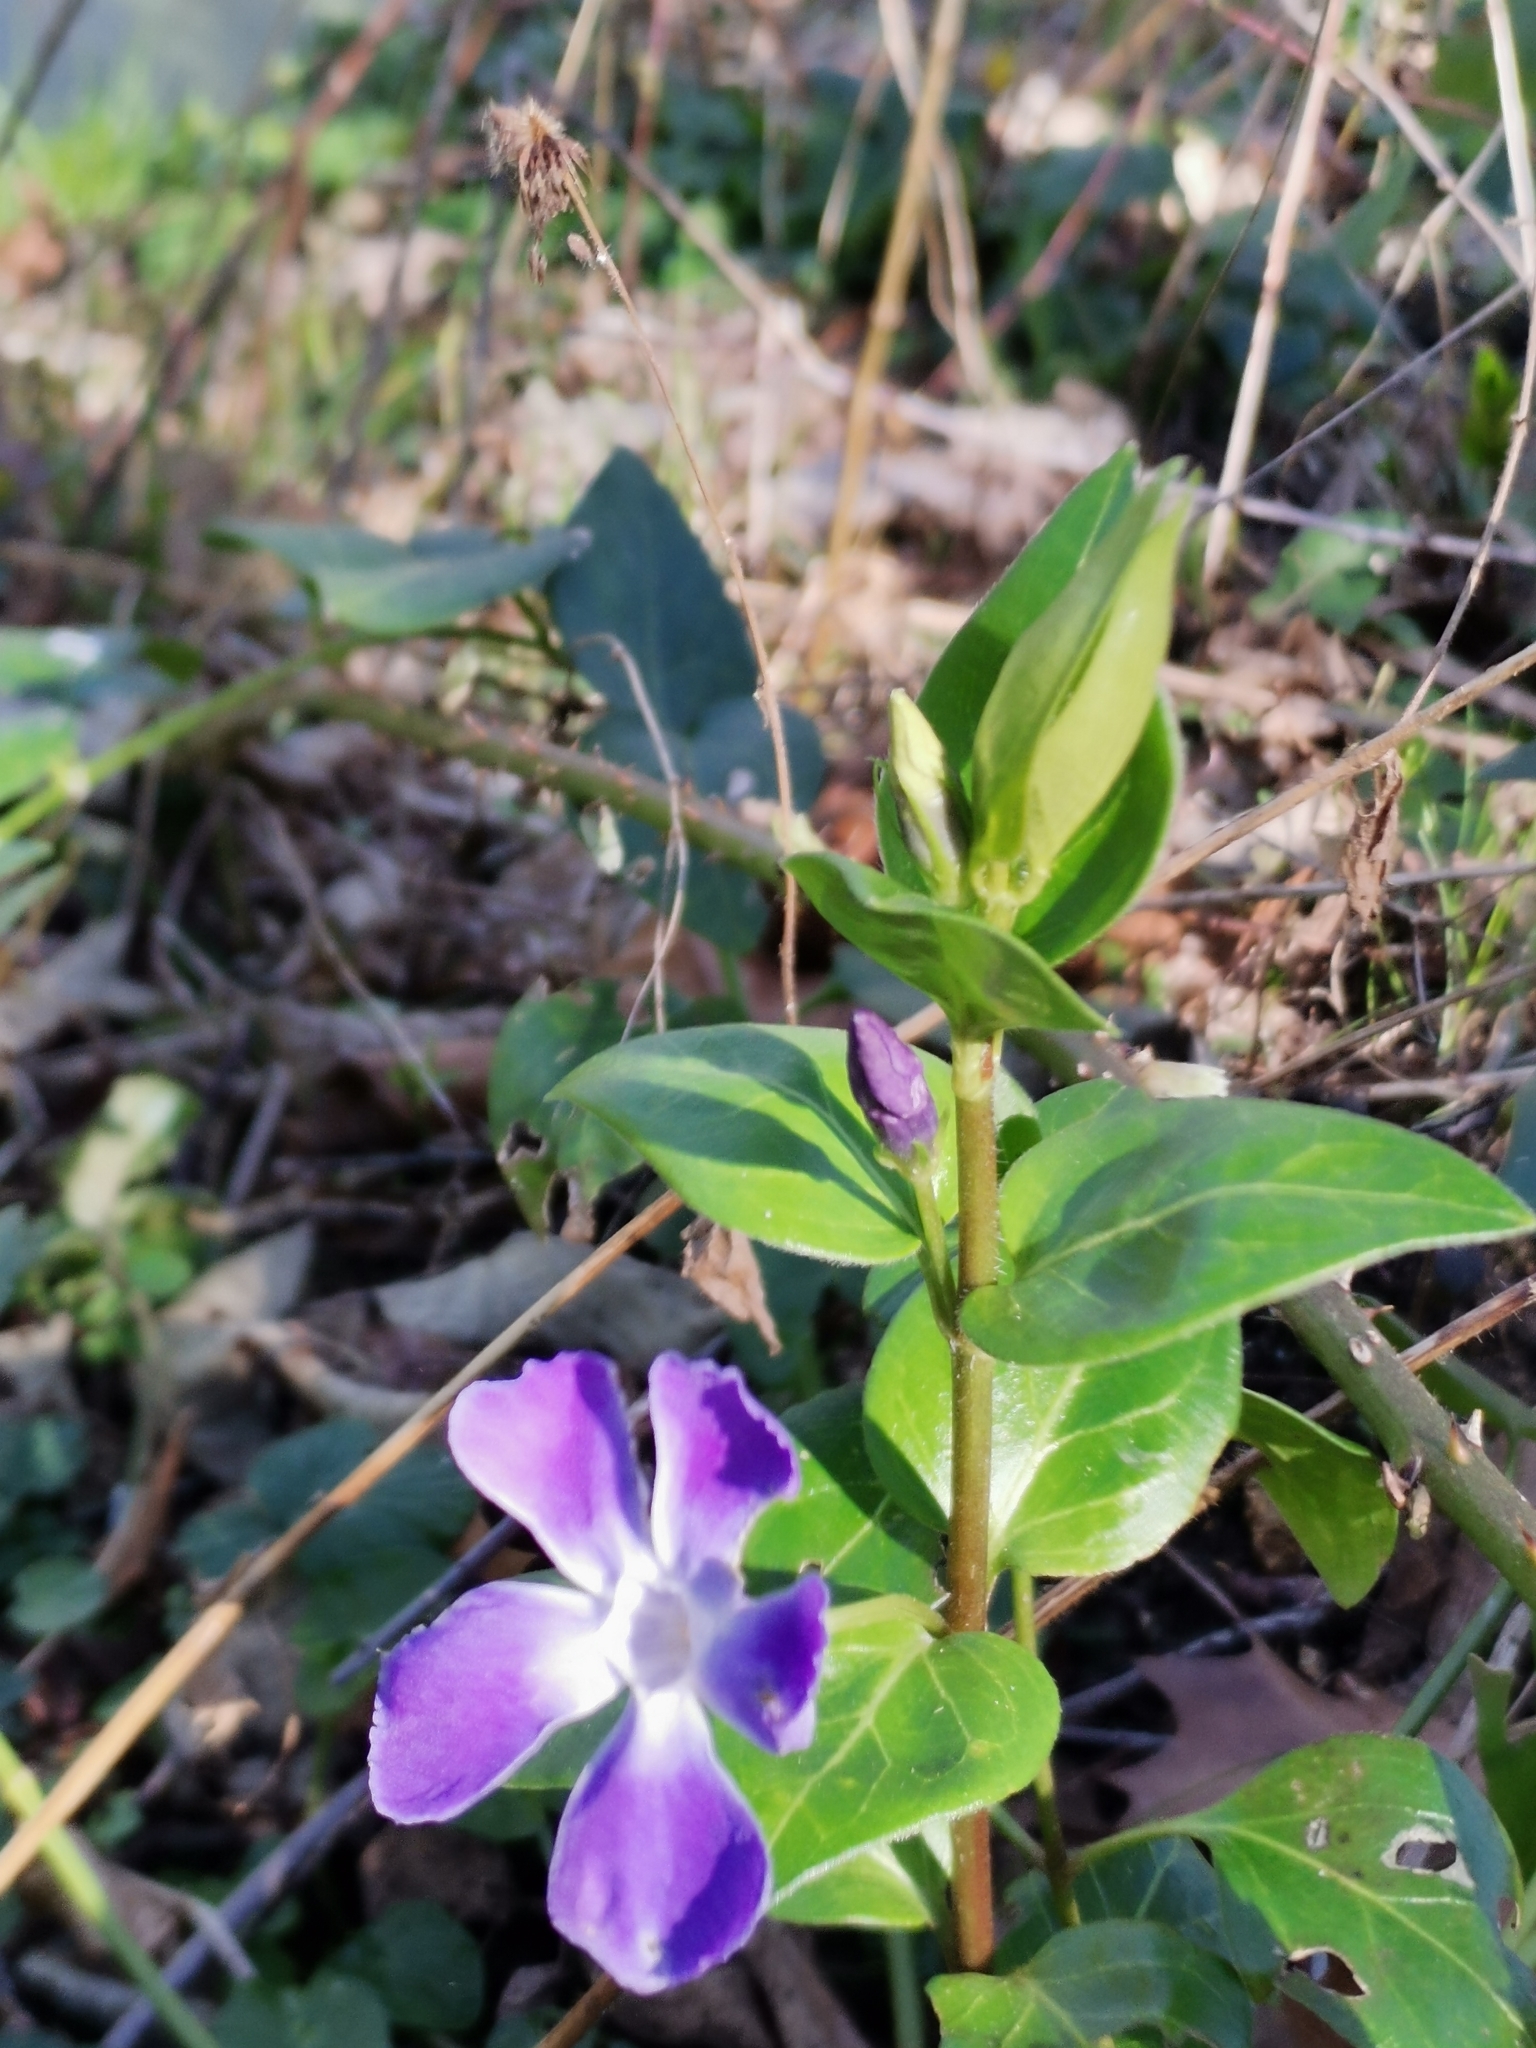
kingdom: Plantae
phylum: Tracheophyta
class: Magnoliopsida
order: Gentianales
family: Apocynaceae
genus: Vinca
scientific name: Vinca major
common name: Greater periwinkle
